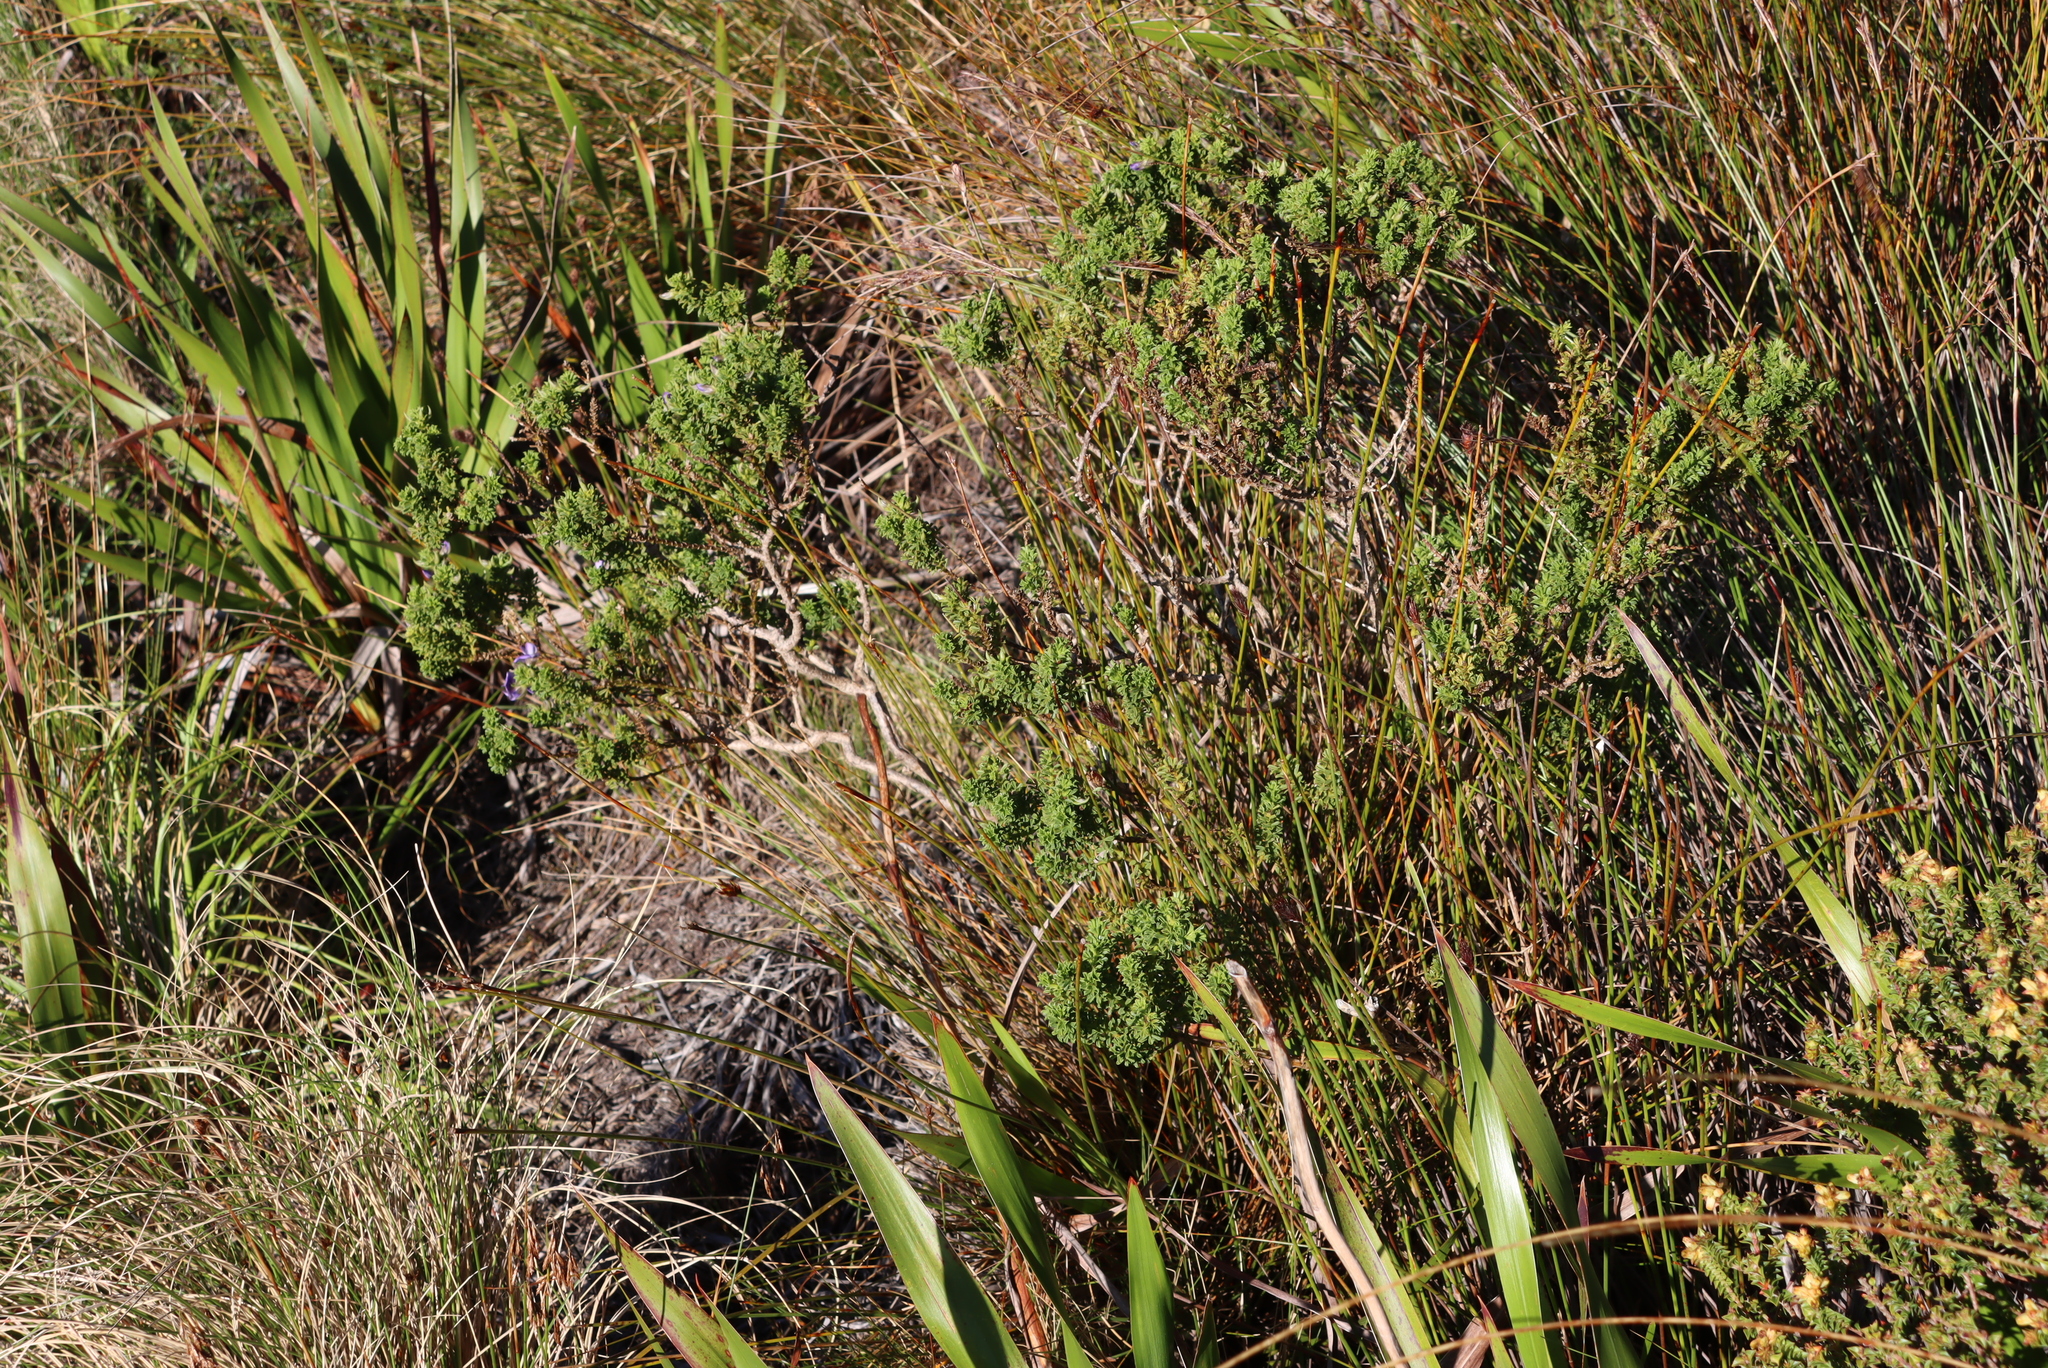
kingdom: Plantae
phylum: Tracheophyta
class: Magnoliopsida
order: Fabales
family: Fabaceae
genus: Psoralea
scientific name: Psoralea aculeata
